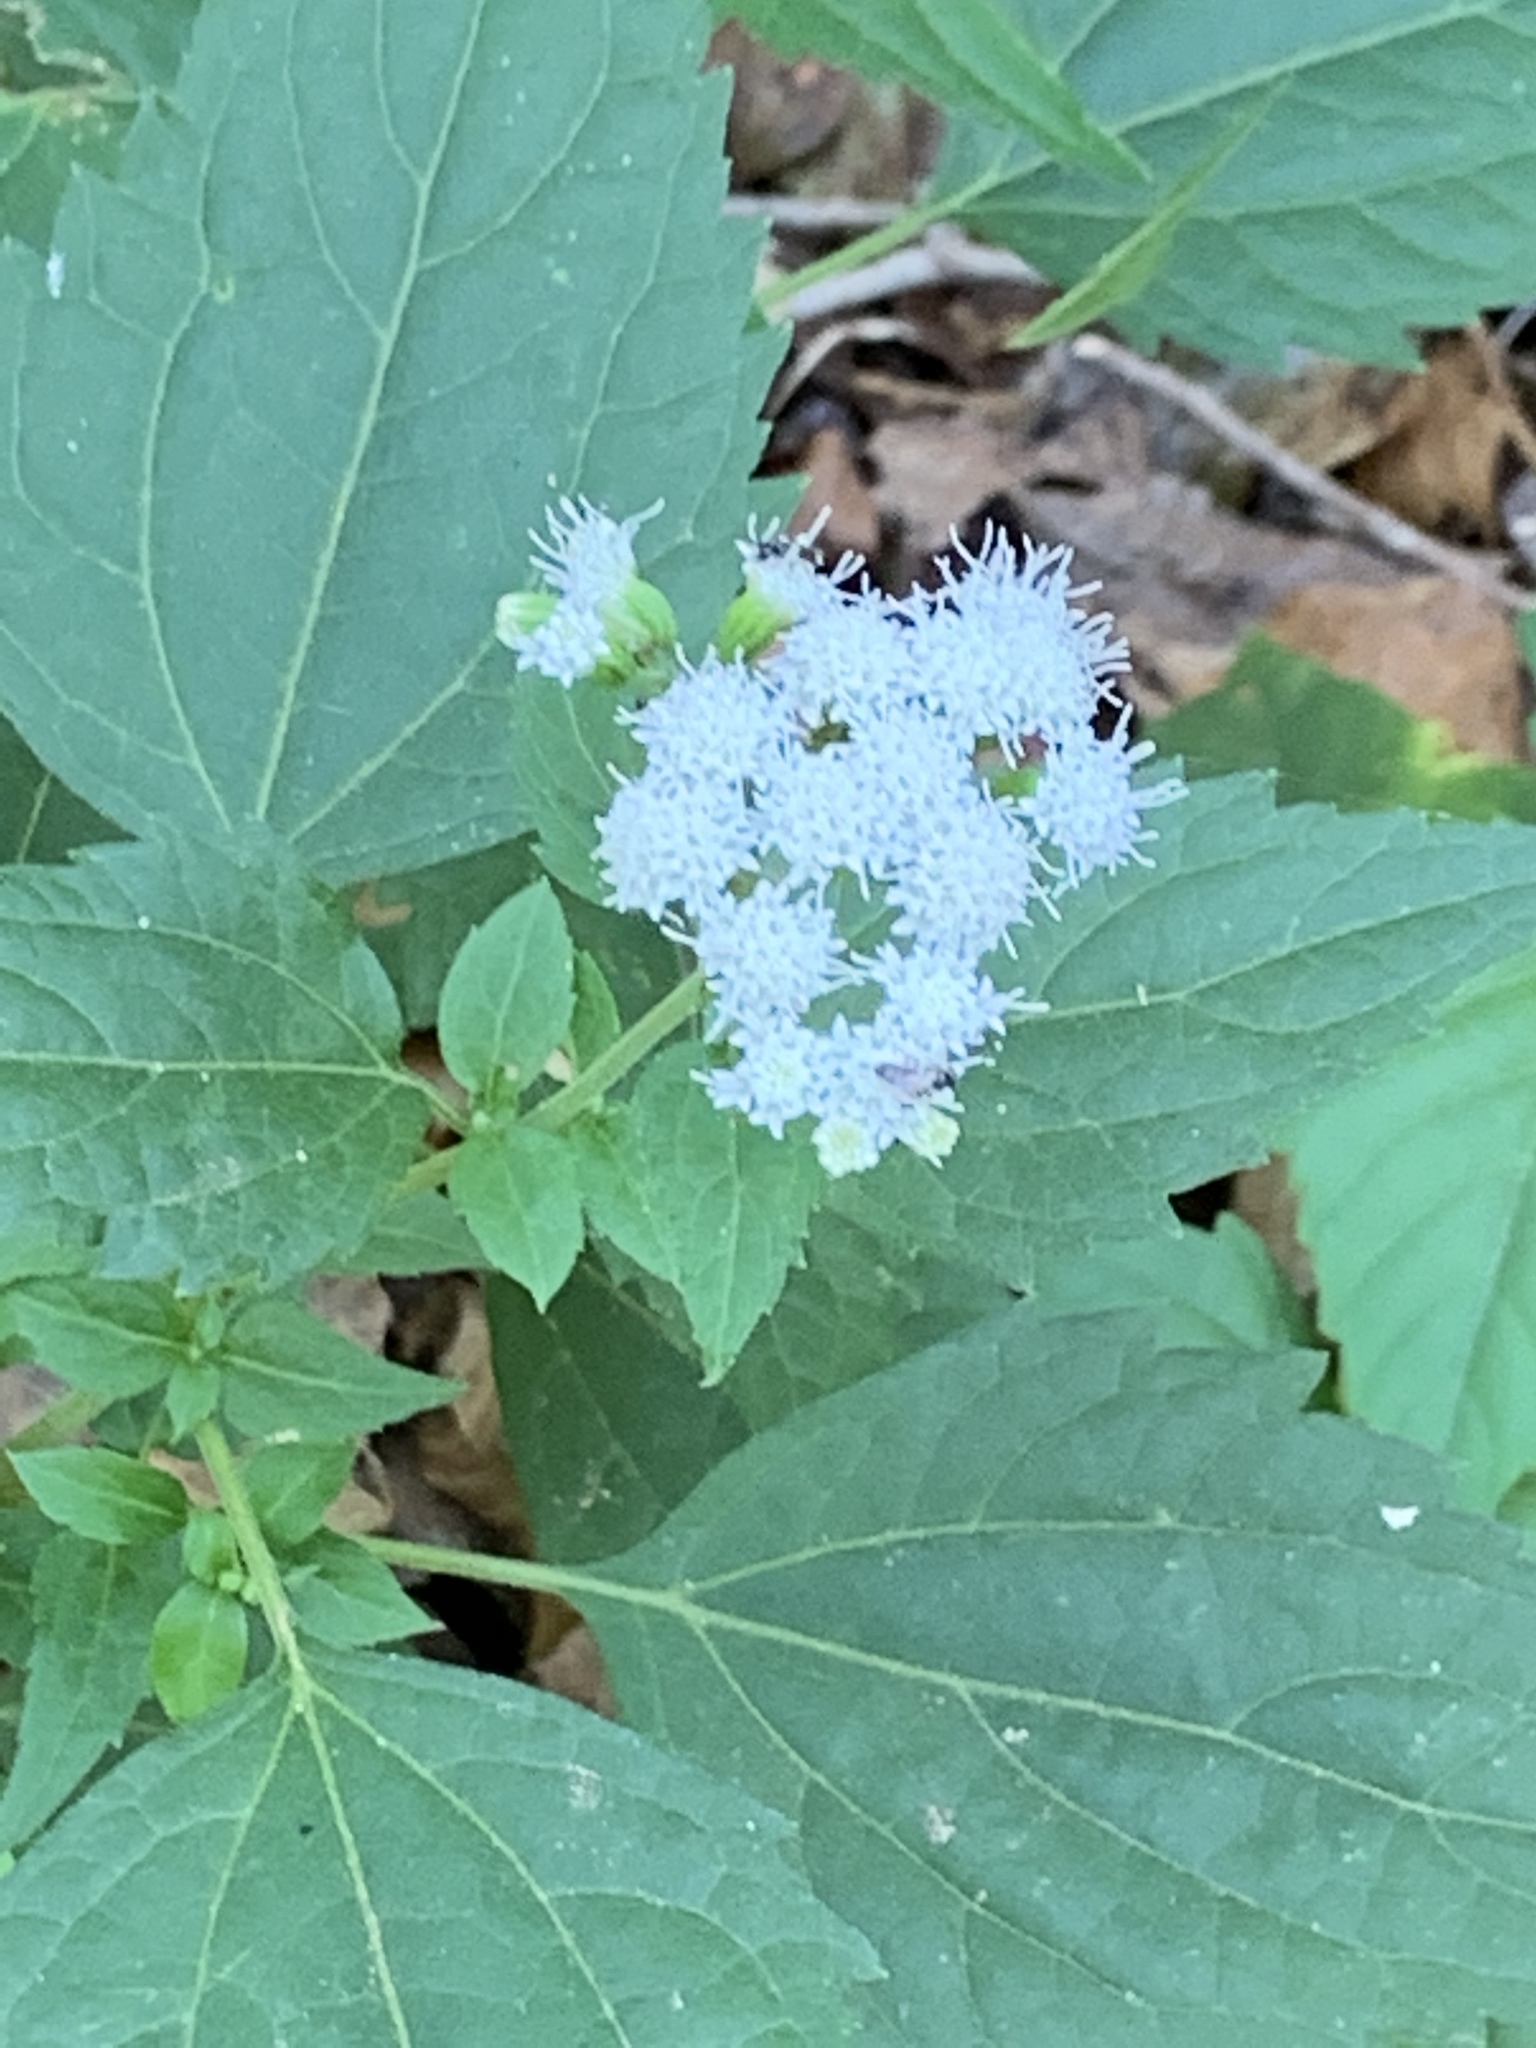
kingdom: Plantae
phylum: Tracheophyta
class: Magnoliopsida
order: Asterales
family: Asteraceae
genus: Ageratina
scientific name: Ageratina altissima
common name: White snakeroot
